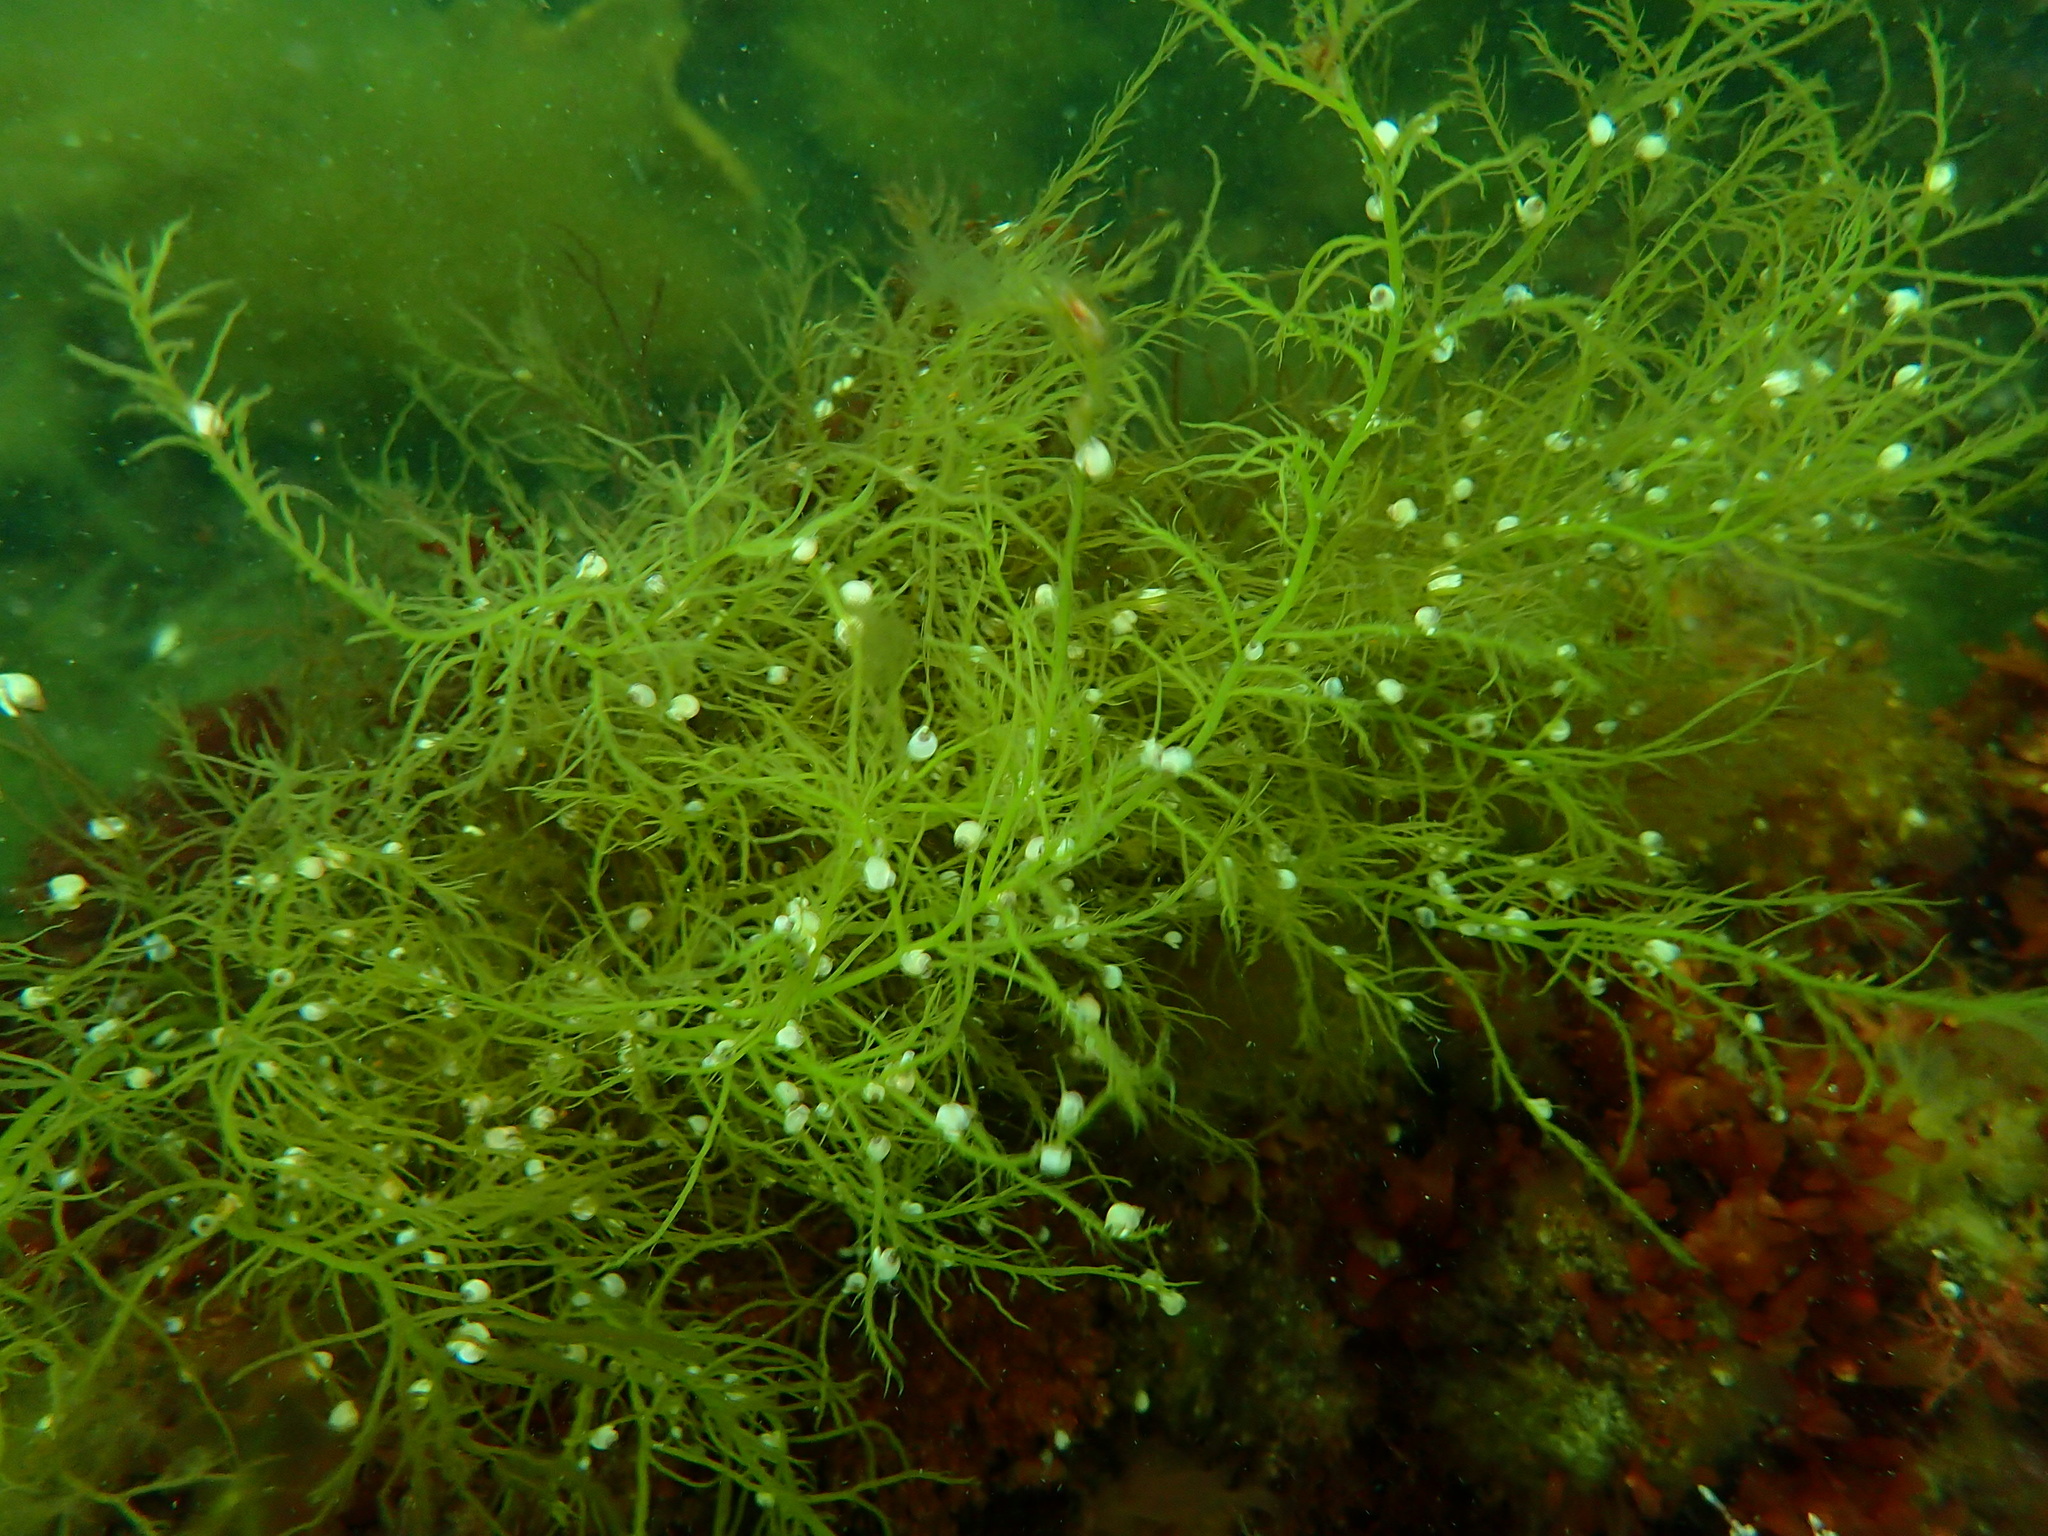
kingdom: Animalia
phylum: Mollusca
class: Gastropoda
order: Littorinimorpha
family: Littorinidae
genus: Lacuna
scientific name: Lacuna vincta
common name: Banded chink shell
